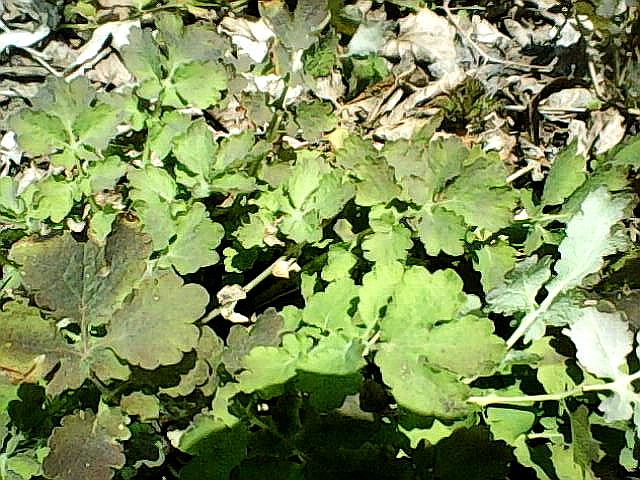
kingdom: Plantae
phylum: Tracheophyta
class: Magnoliopsida
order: Ranunculales
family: Papaveraceae
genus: Chelidonium
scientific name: Chelidonium majus
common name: Greater celandine
